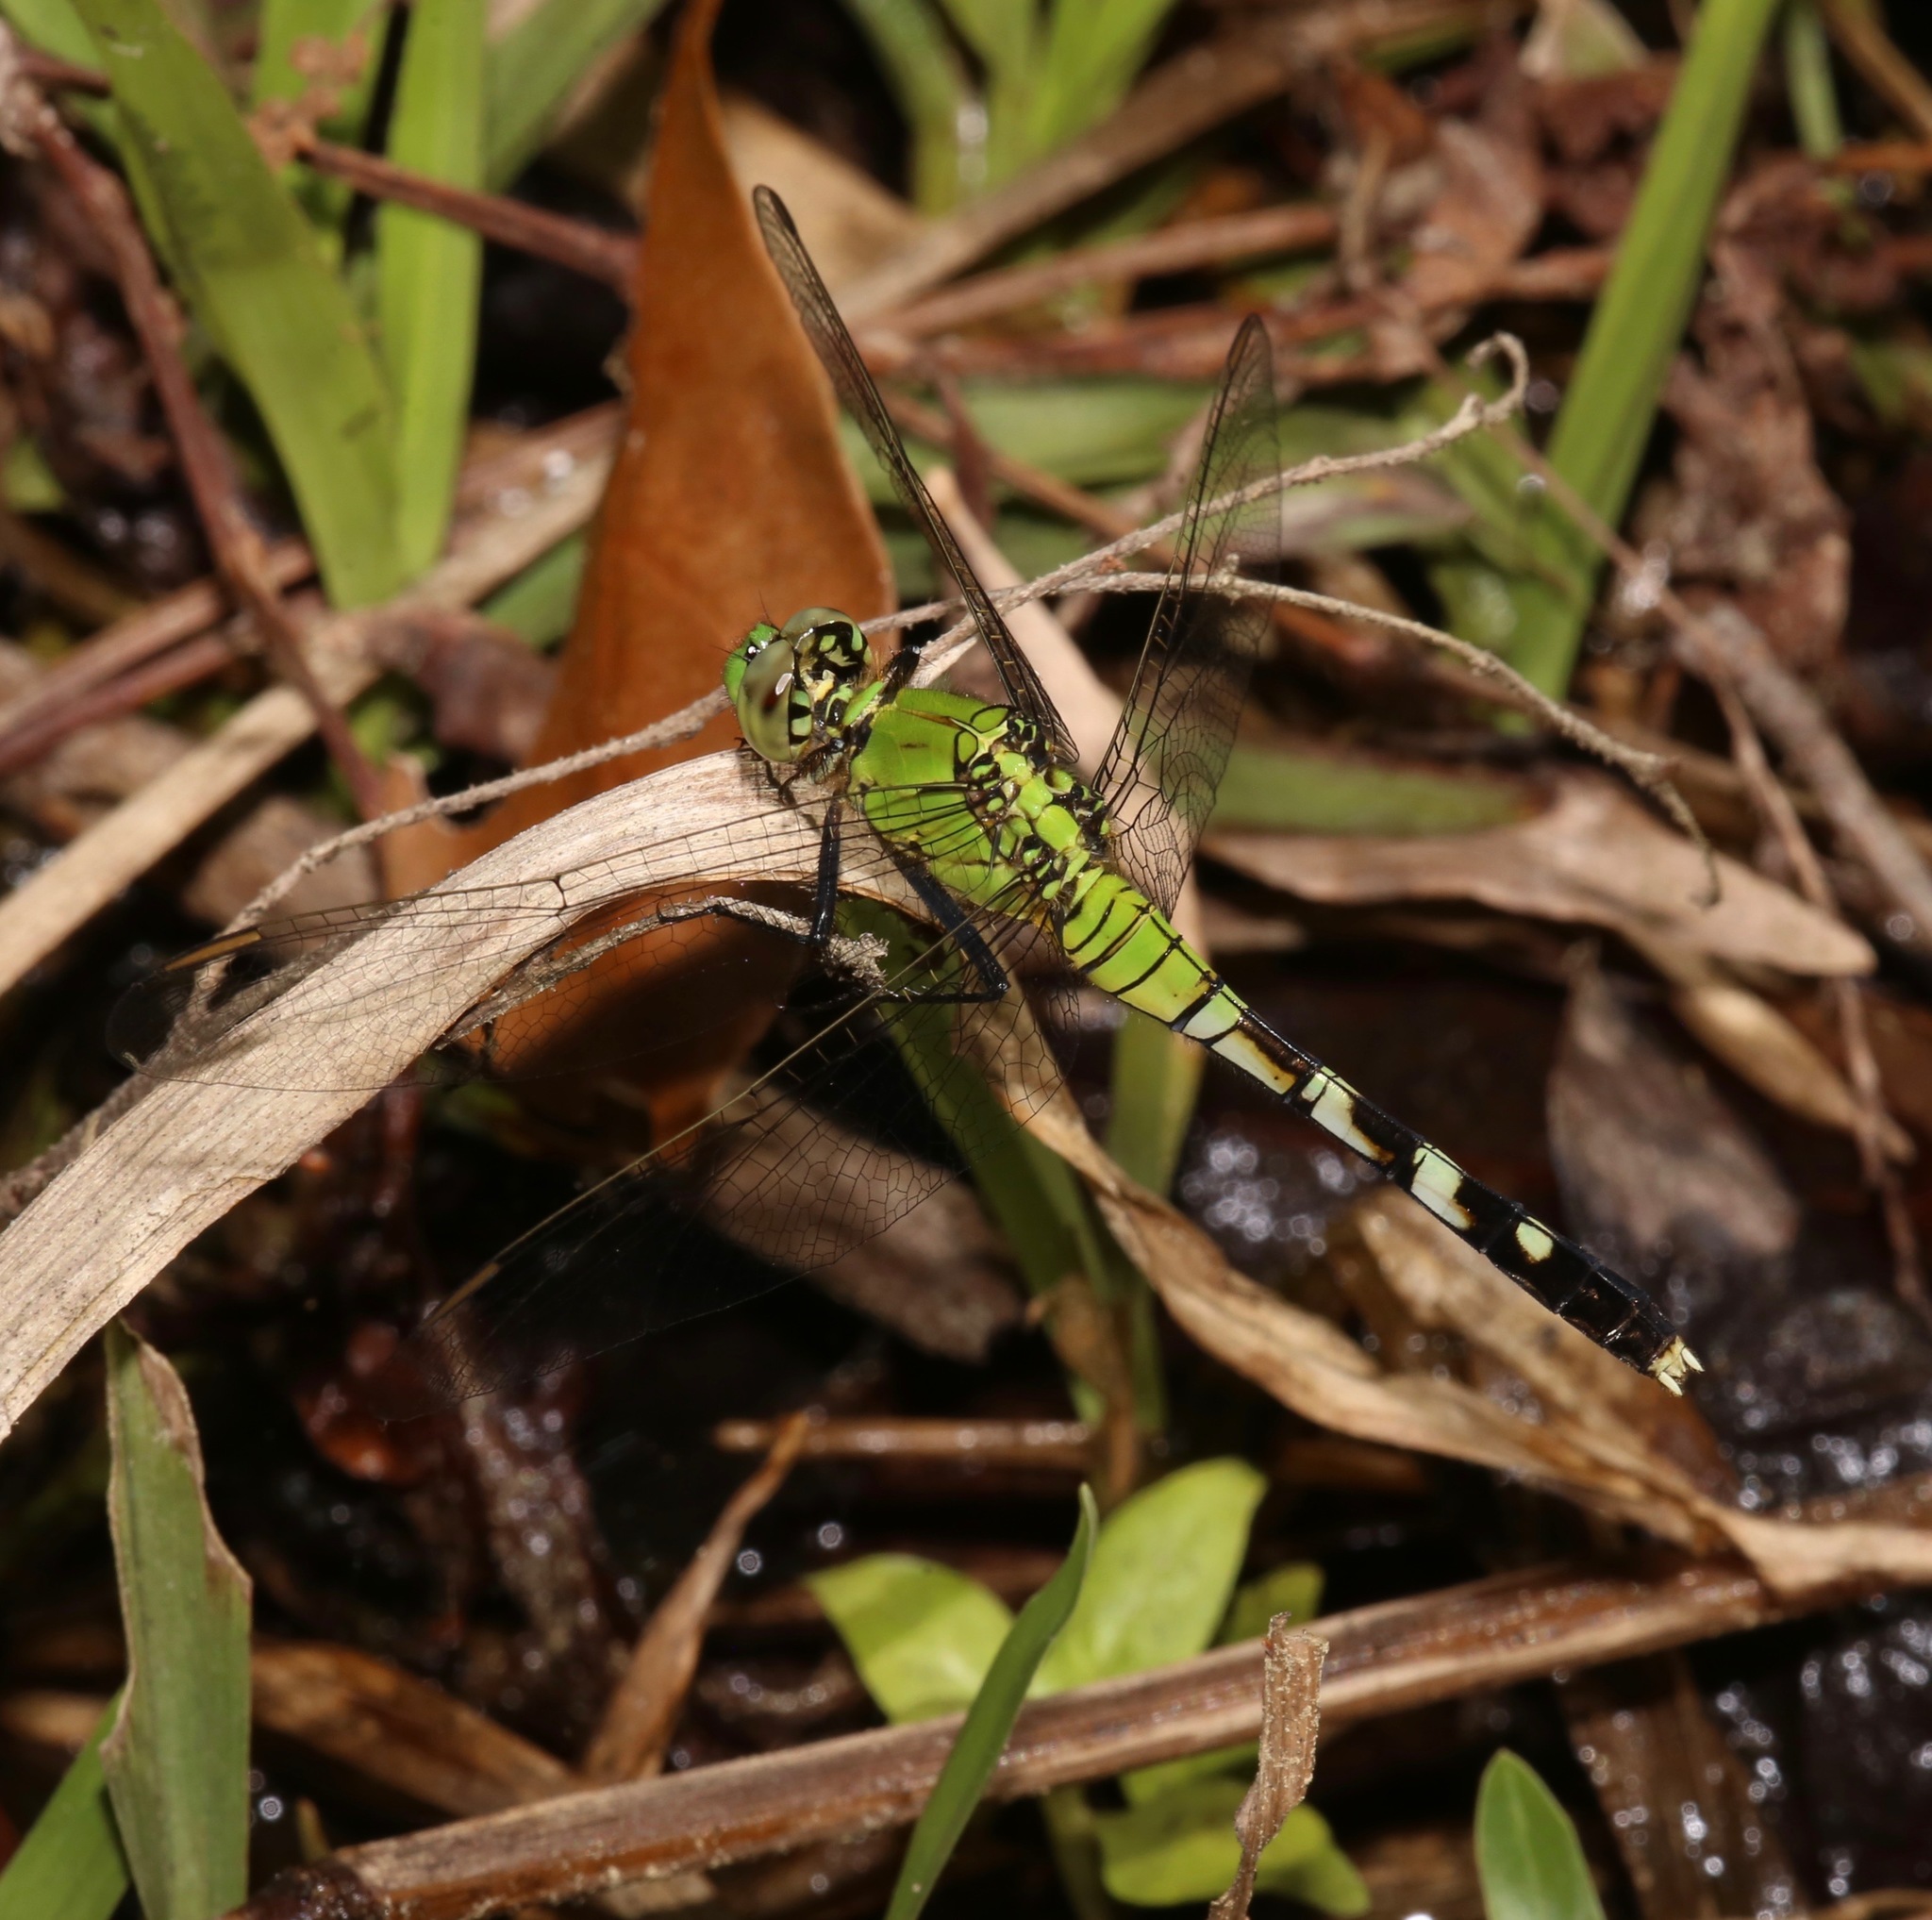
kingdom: Animalia
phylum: Arthropoda
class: Insecta
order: Odonata
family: Libellulidae
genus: Erythemis
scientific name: Erythemis simplicicollis
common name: Eastern pondhawk
